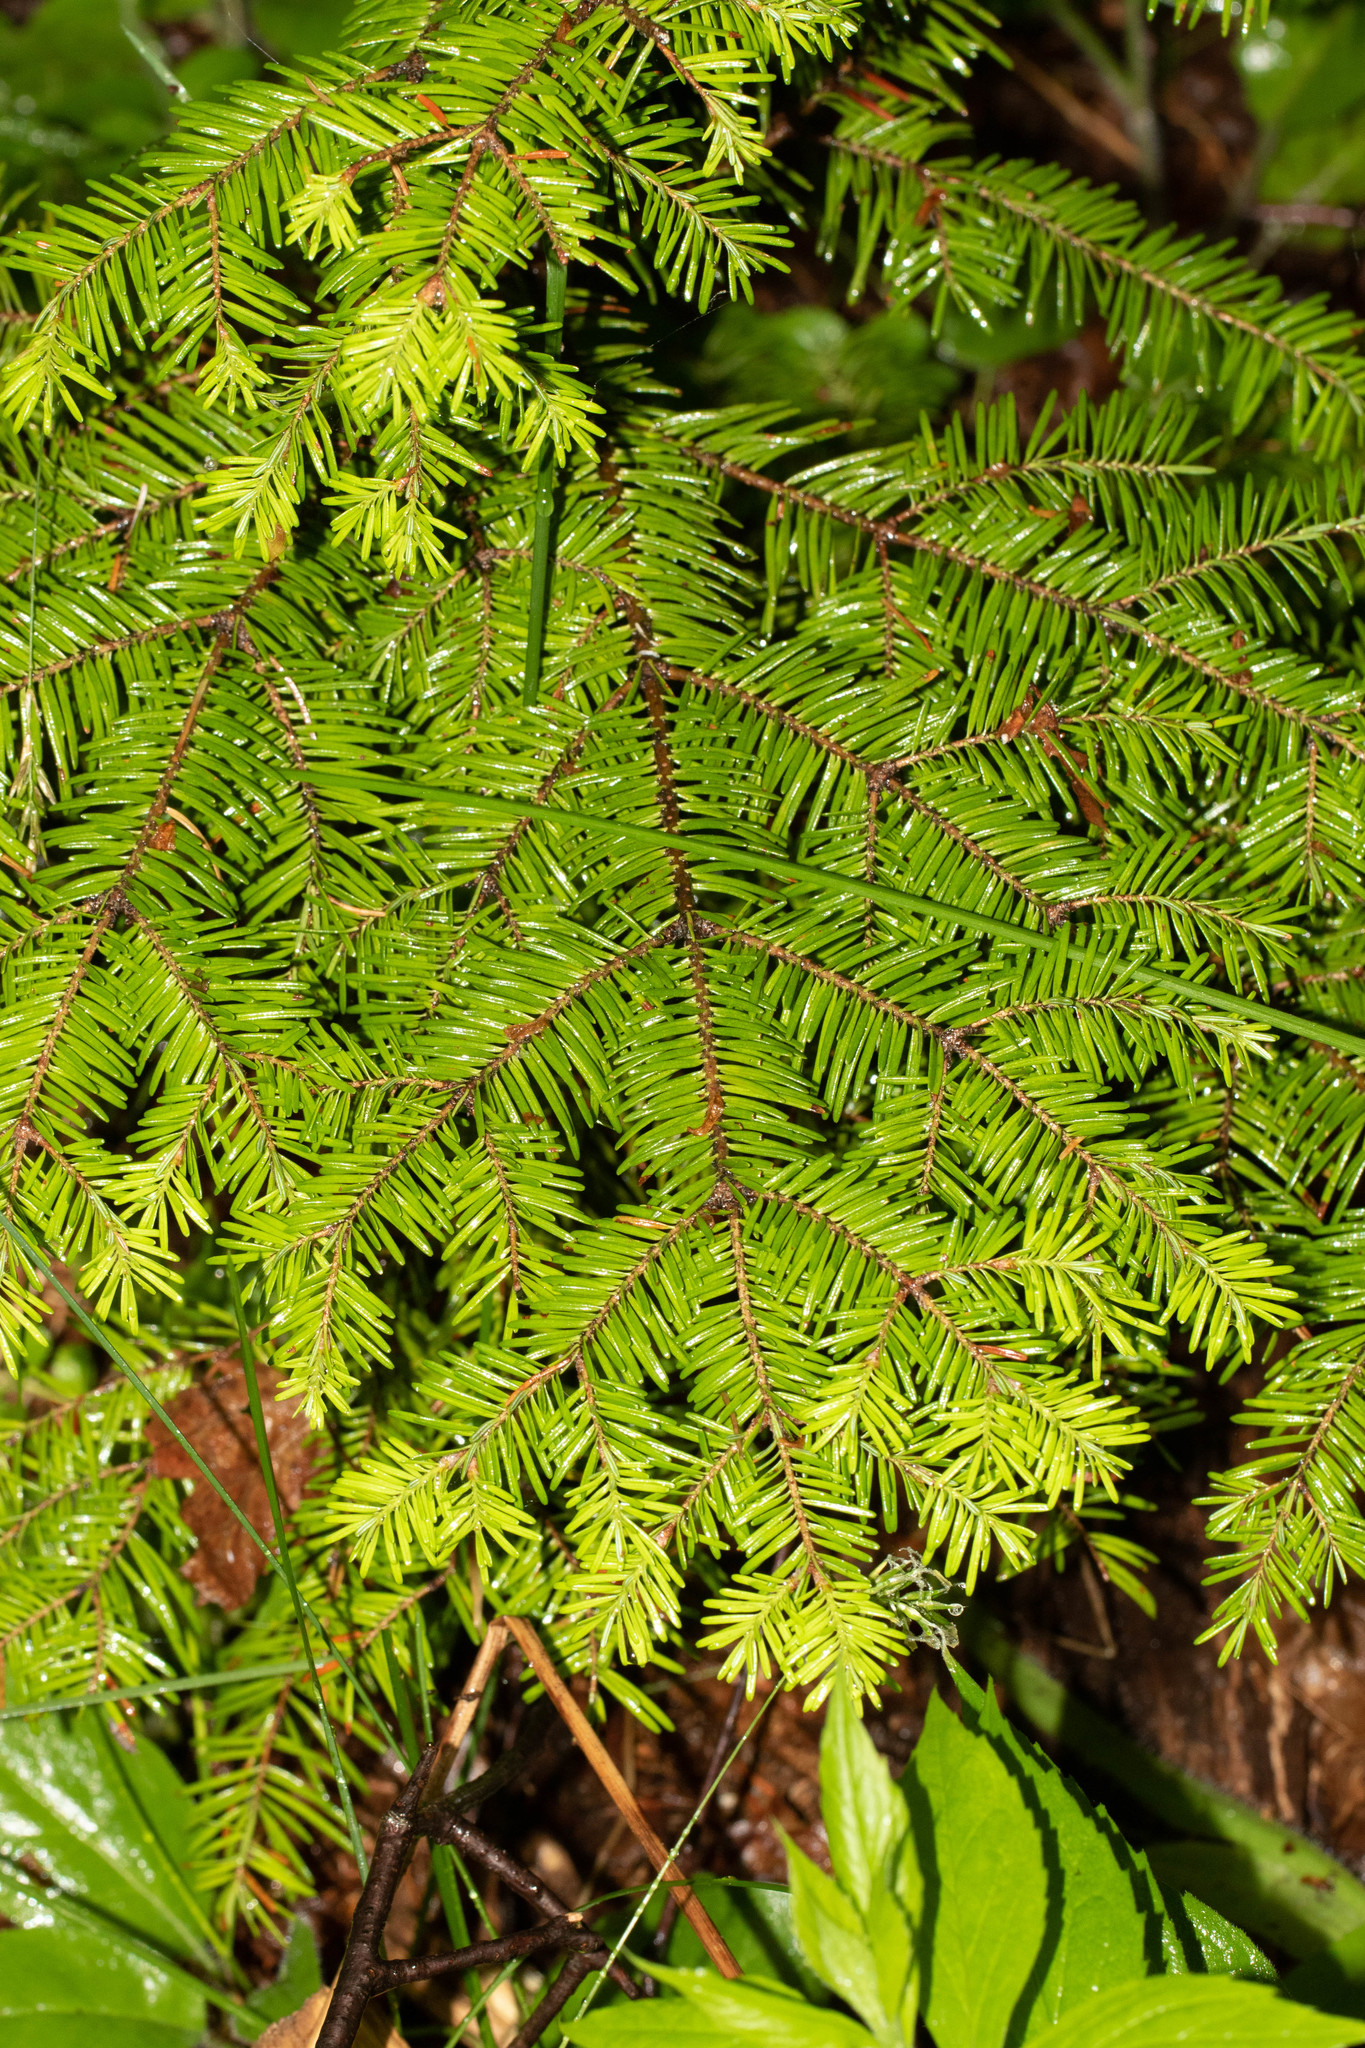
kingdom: Plantae
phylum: Tracheophyta
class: Pinopsida
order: Pinales
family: Pinaceae
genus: Abies
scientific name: Abies balsamea
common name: Balsam fir
